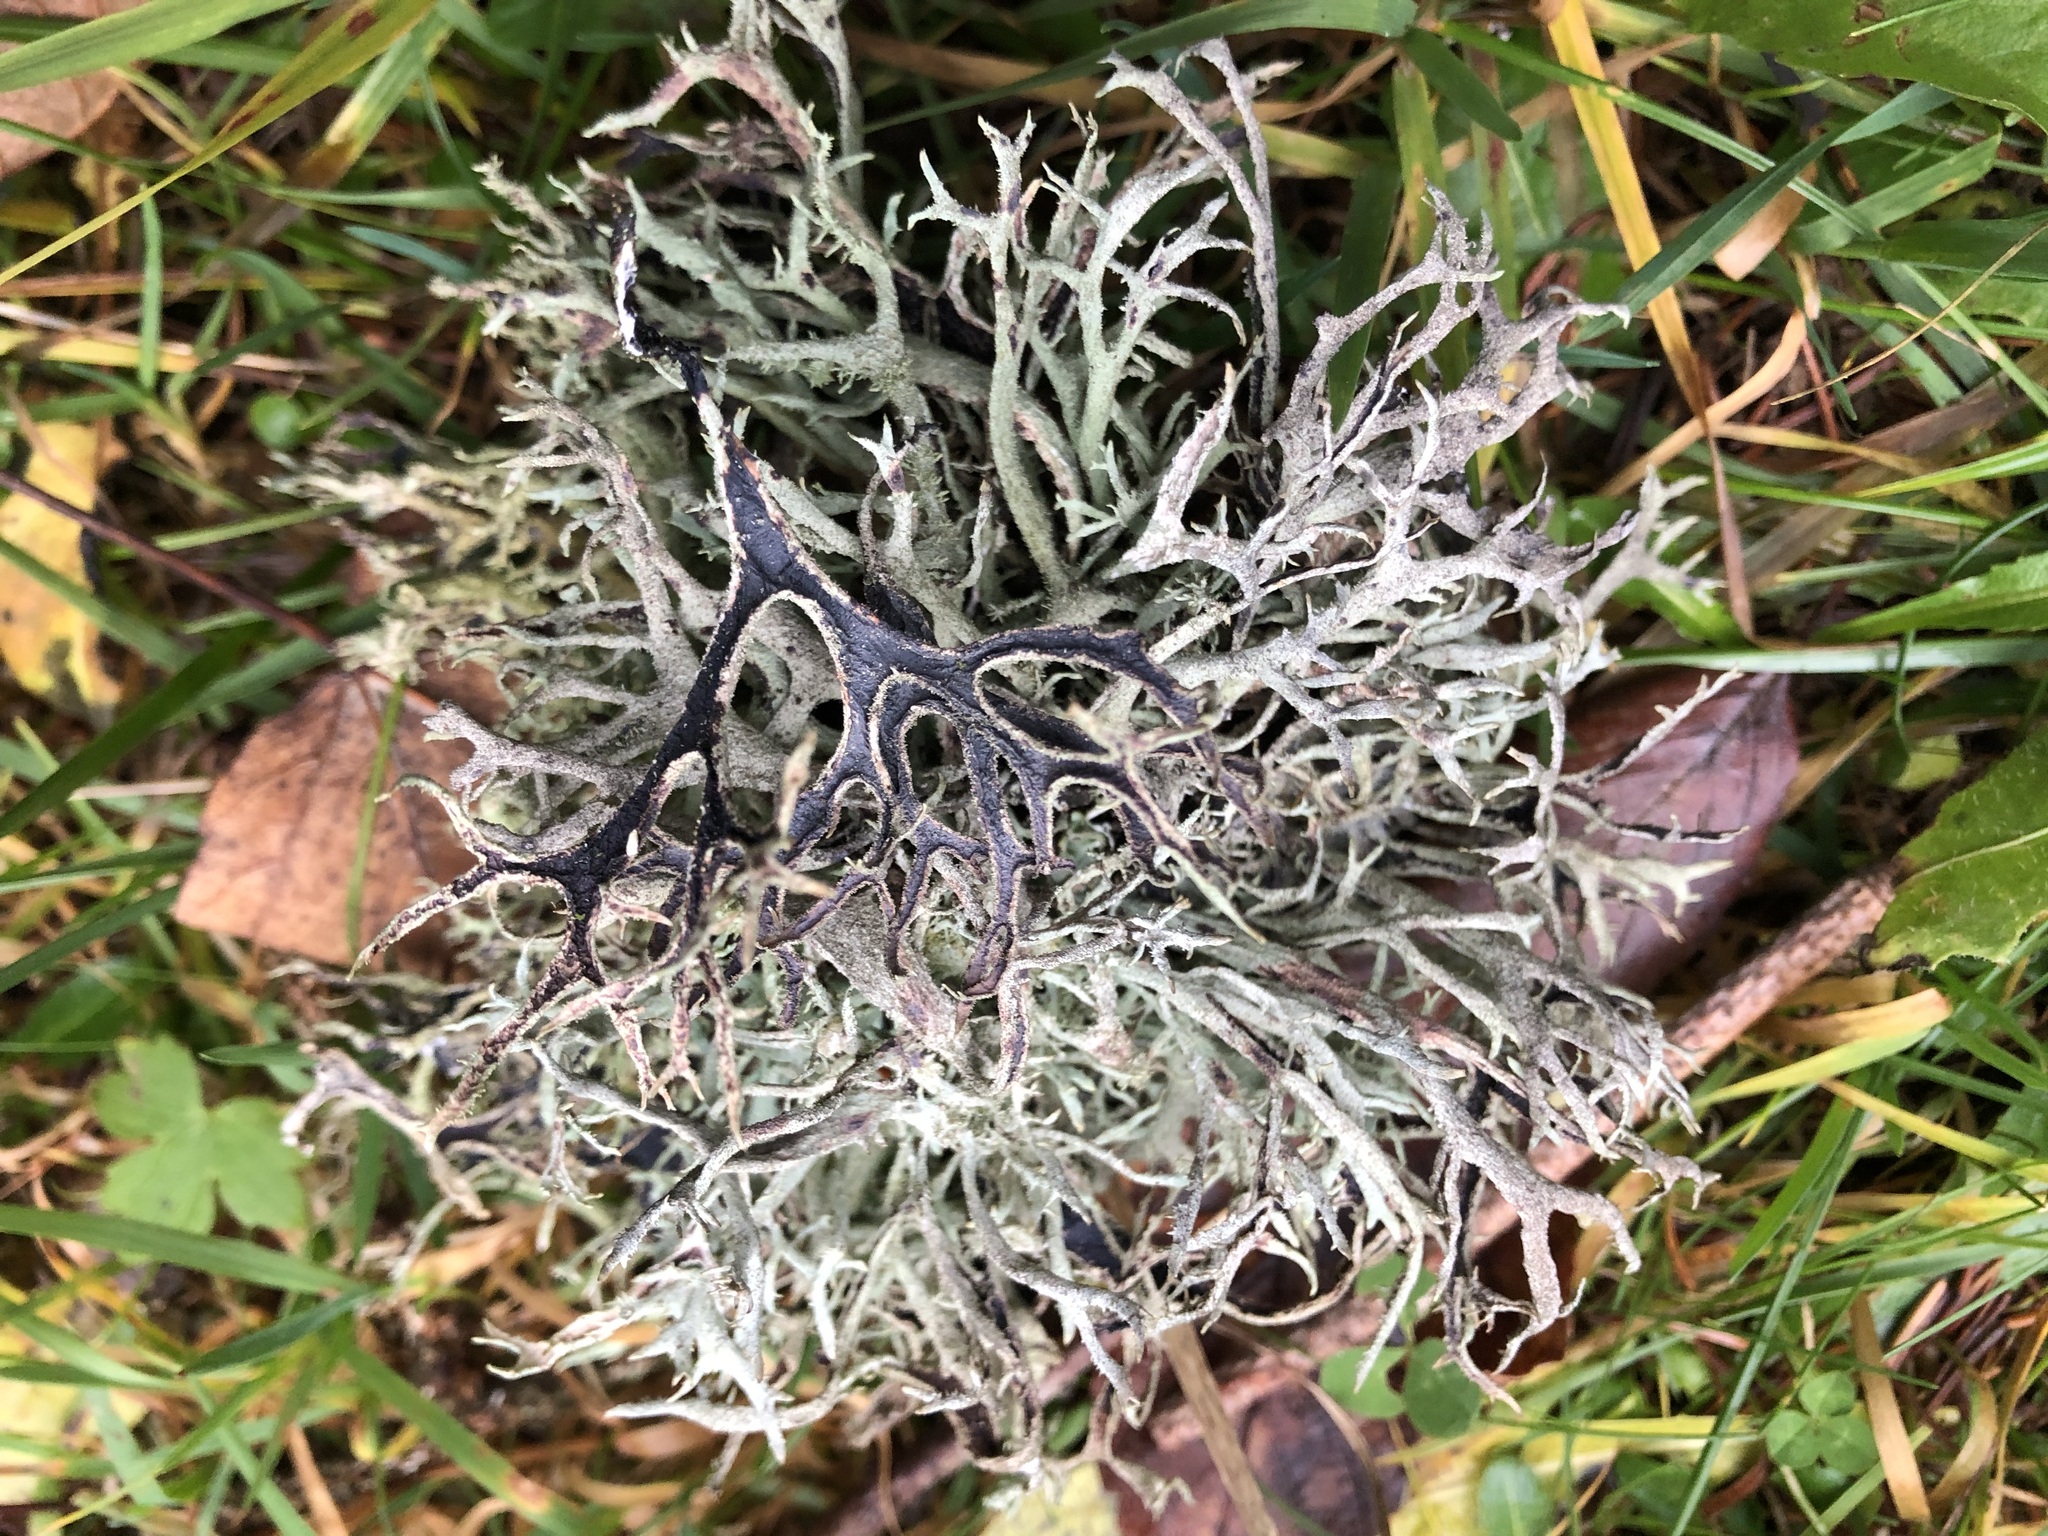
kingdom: Fungi
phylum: Ascomycota
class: Lecanoromycetes
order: Lecanorales
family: Parmeliaceae
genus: Pseudevernia
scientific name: Pseudevernia furfuracea
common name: Tree moss
